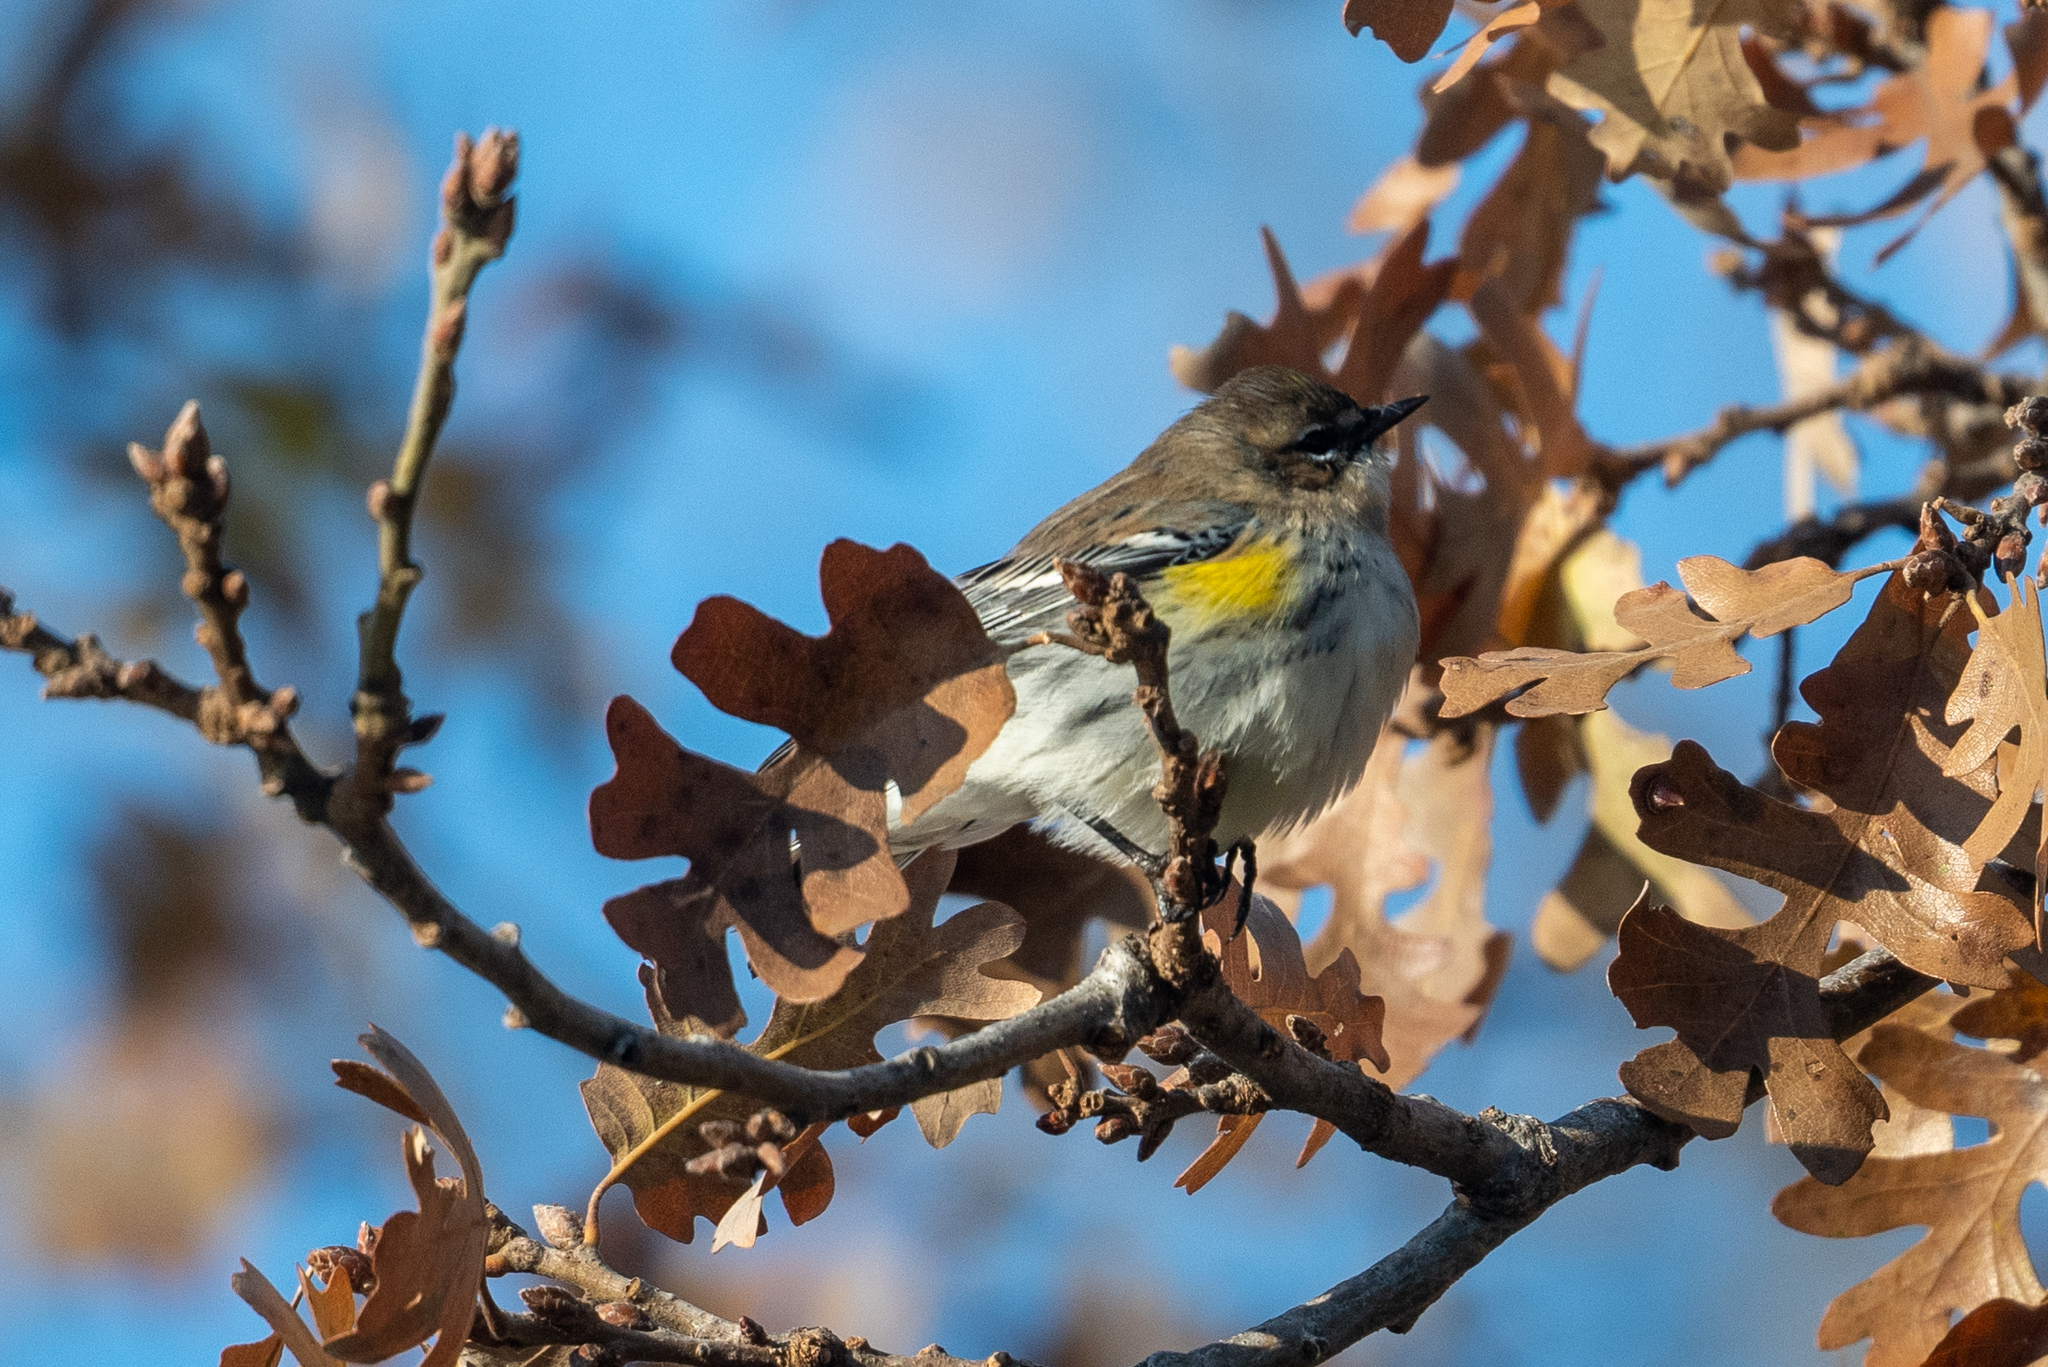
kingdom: Animalia
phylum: Chordata
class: Aves
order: Passeriformes
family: Parulidae
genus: Setophaga
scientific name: Setophaga coronata
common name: Myrtle warbler
